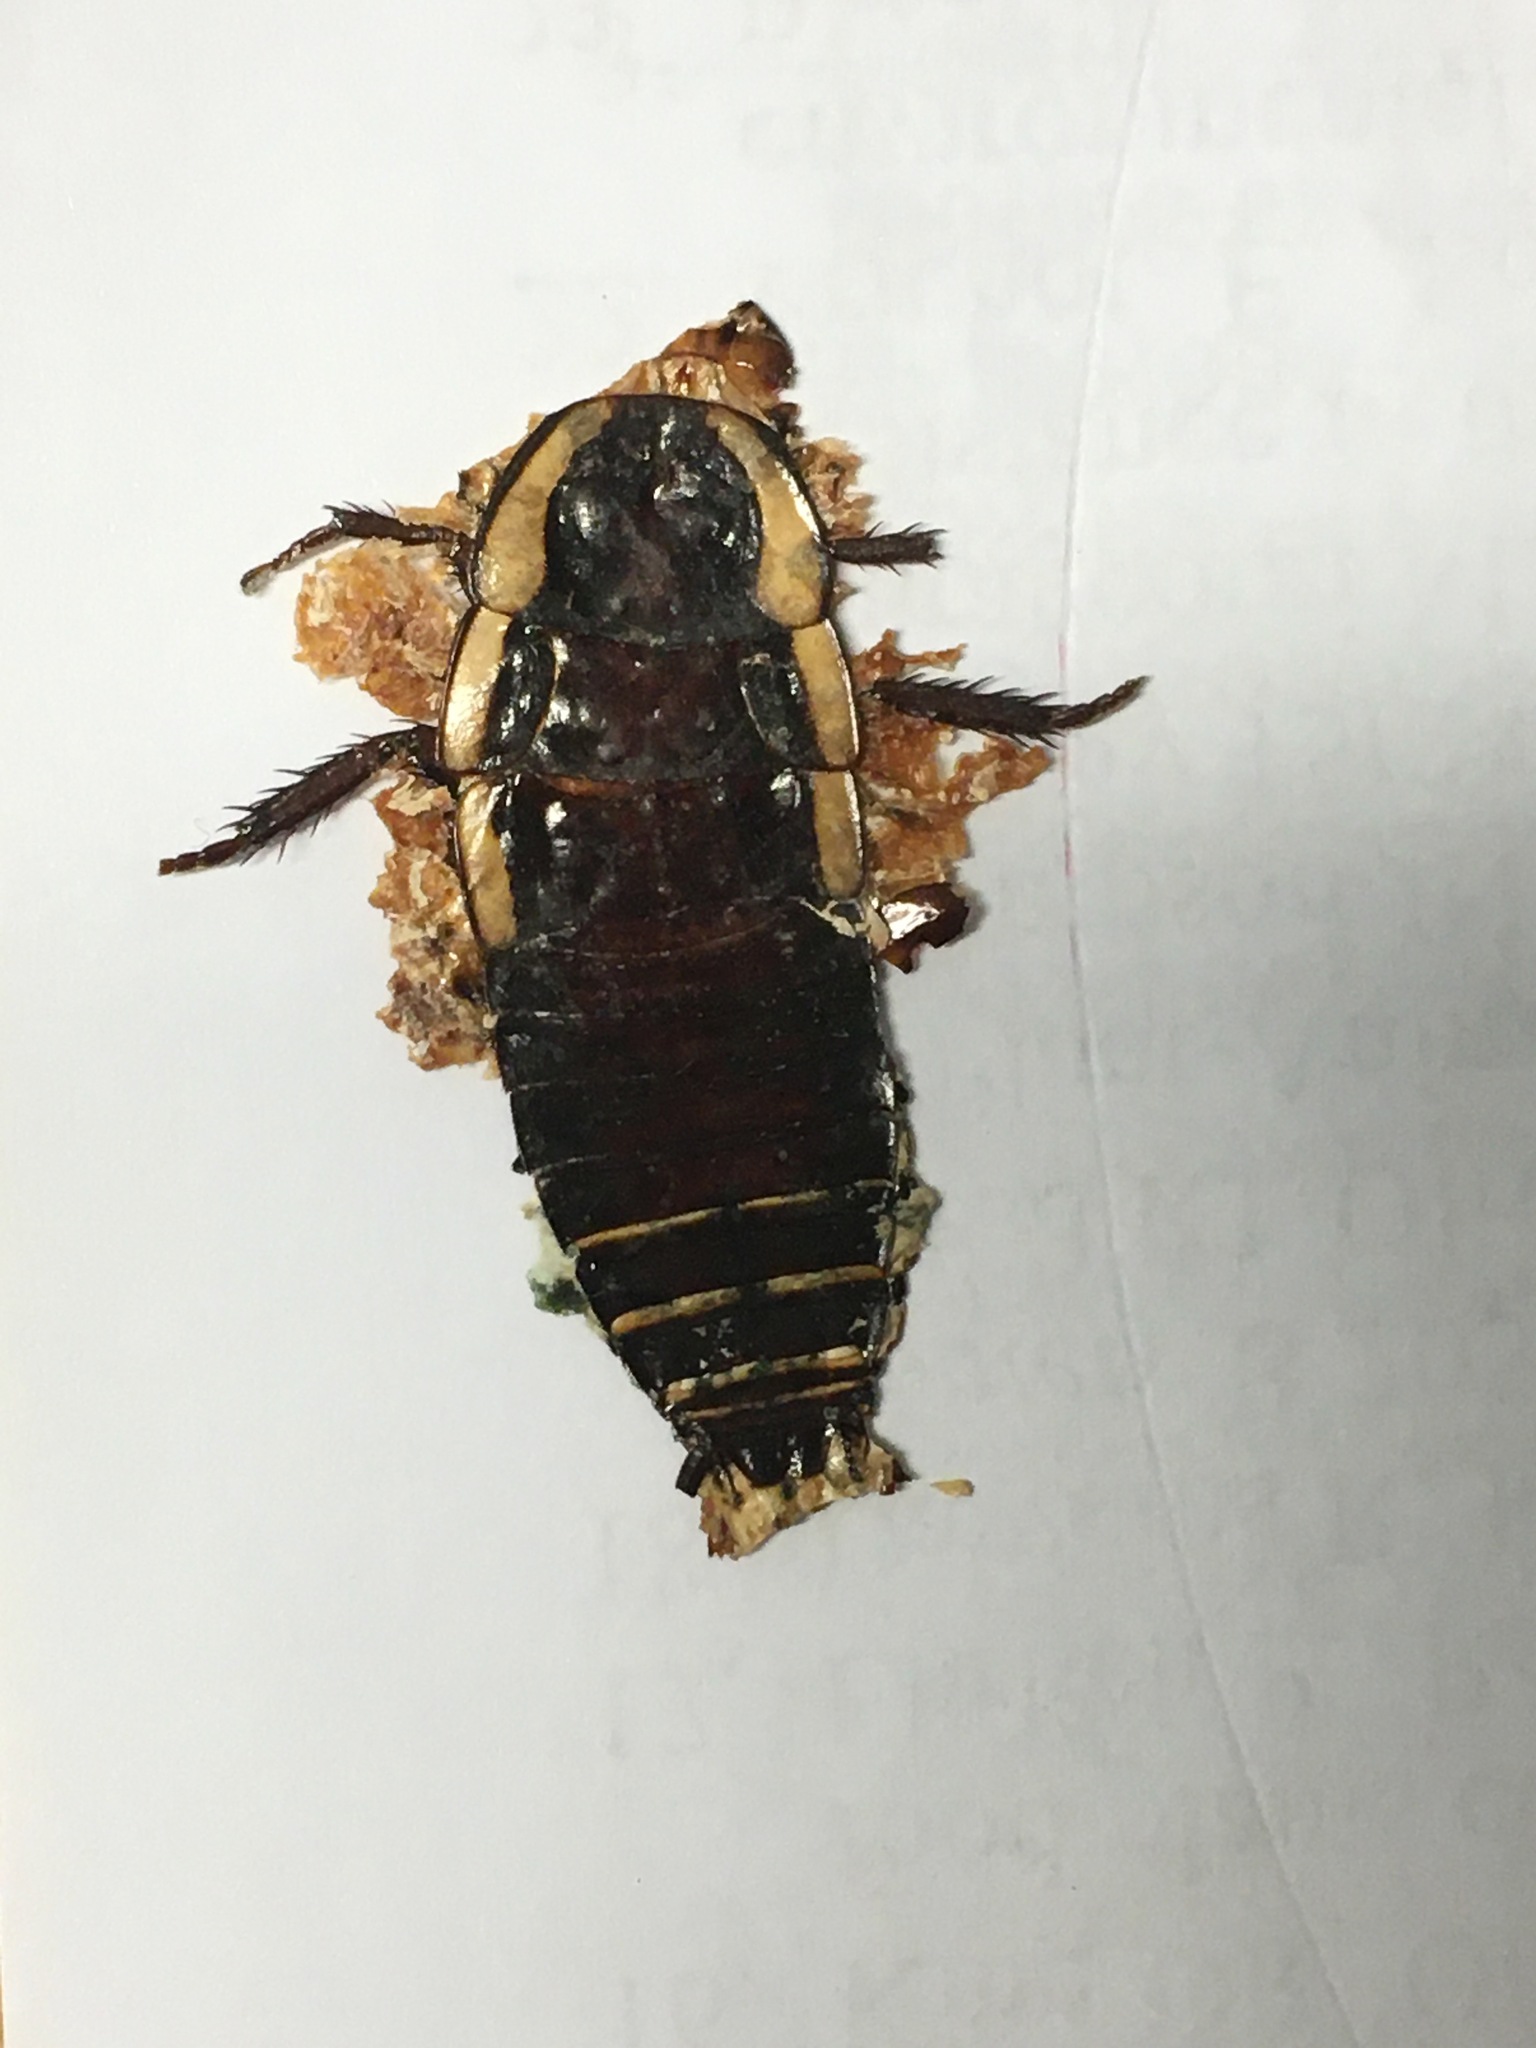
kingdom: Animalia
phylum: Arthropoda
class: Insecta
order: Blattodea
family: Blattidae
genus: Drymaplaneta
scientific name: Drymaplaneta semivitta
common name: Gisborne cockroach
